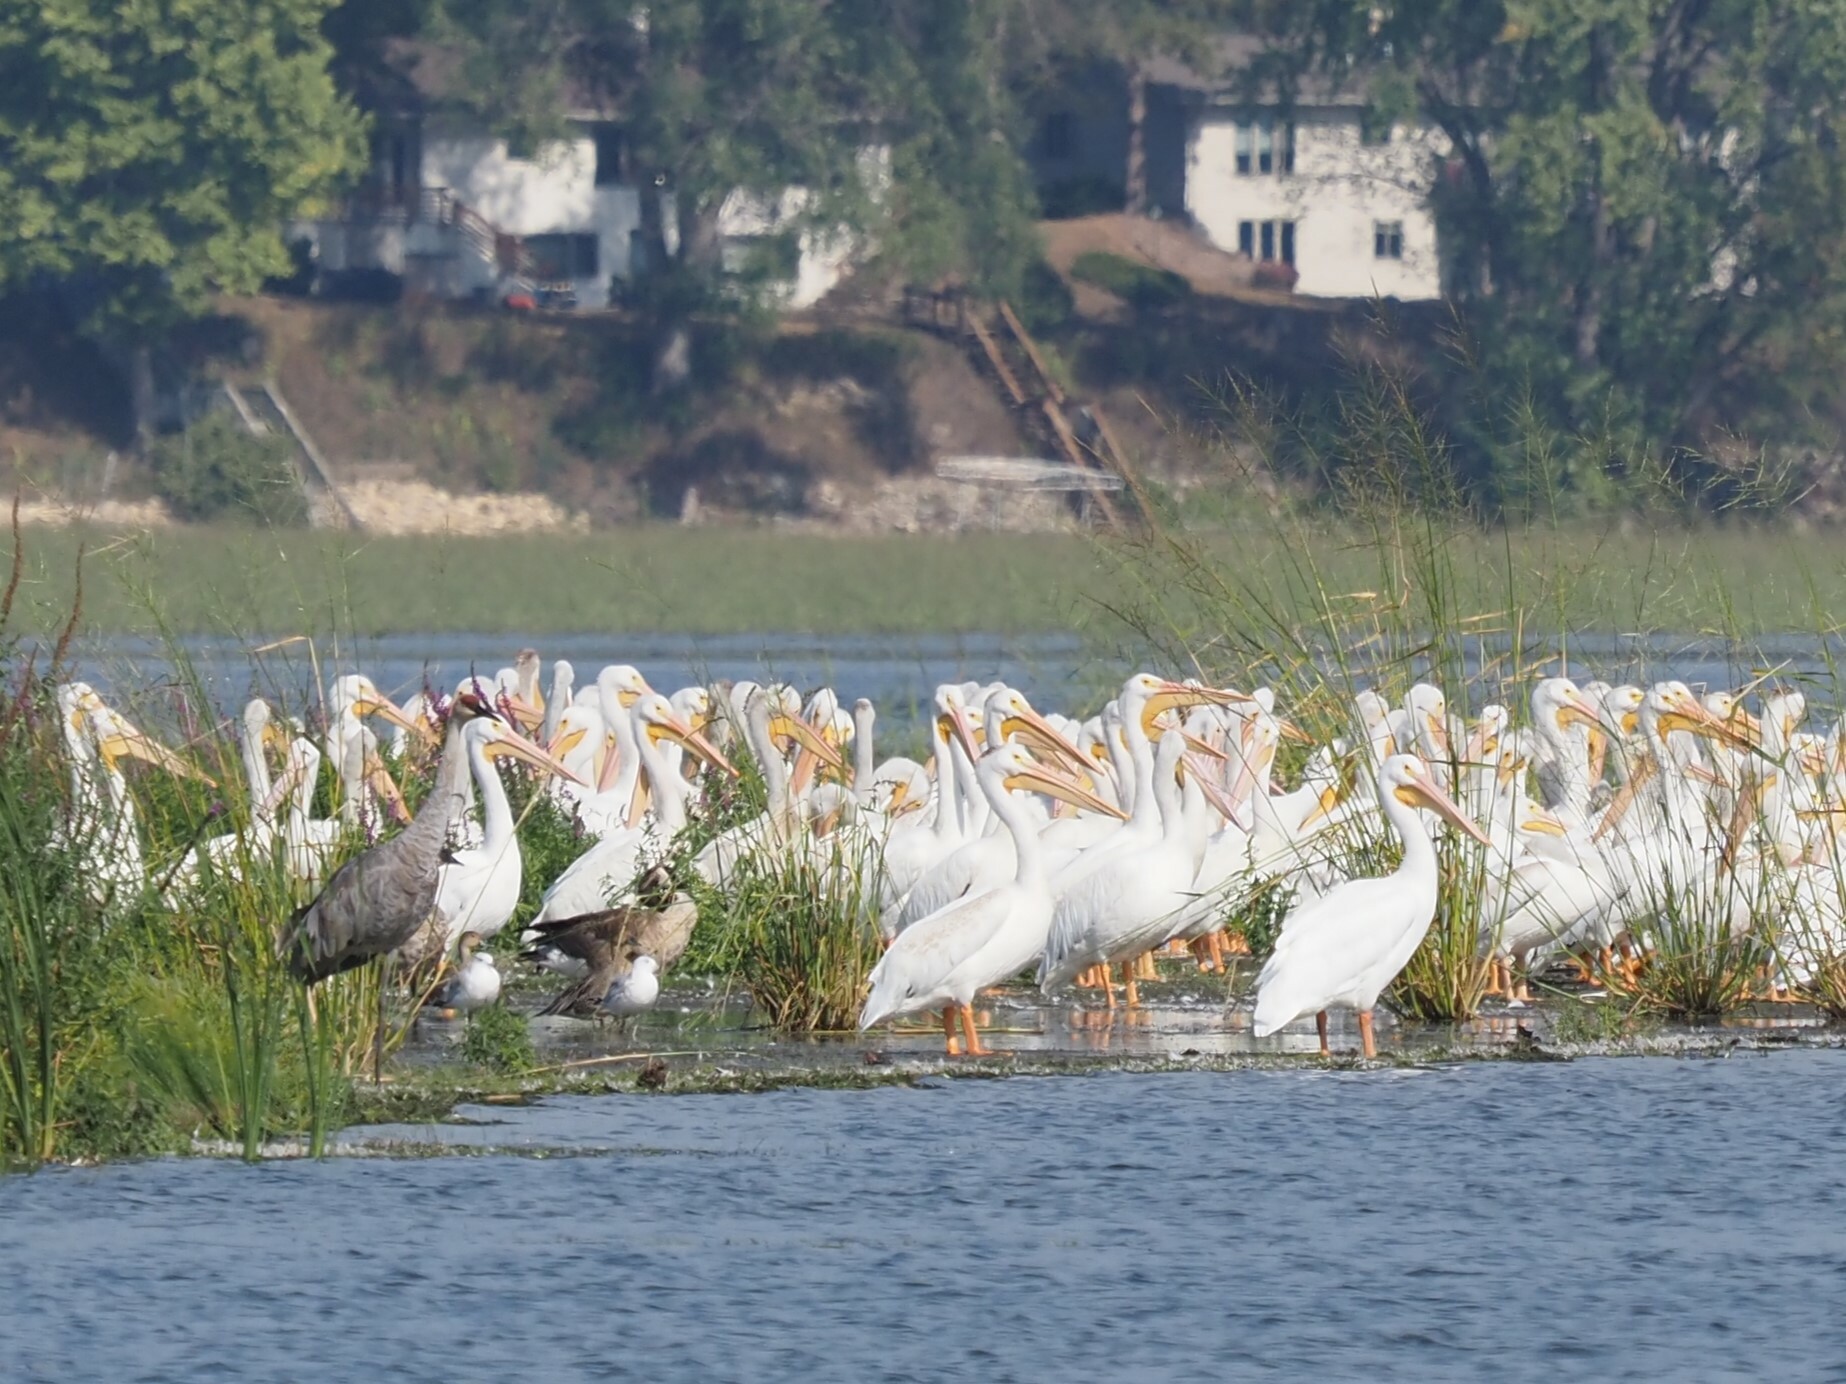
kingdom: Animalia
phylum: Chordata
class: Aves
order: Gruiformes
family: Gruidae
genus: Grus
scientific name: Grus canadensis
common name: Sandhill crane
